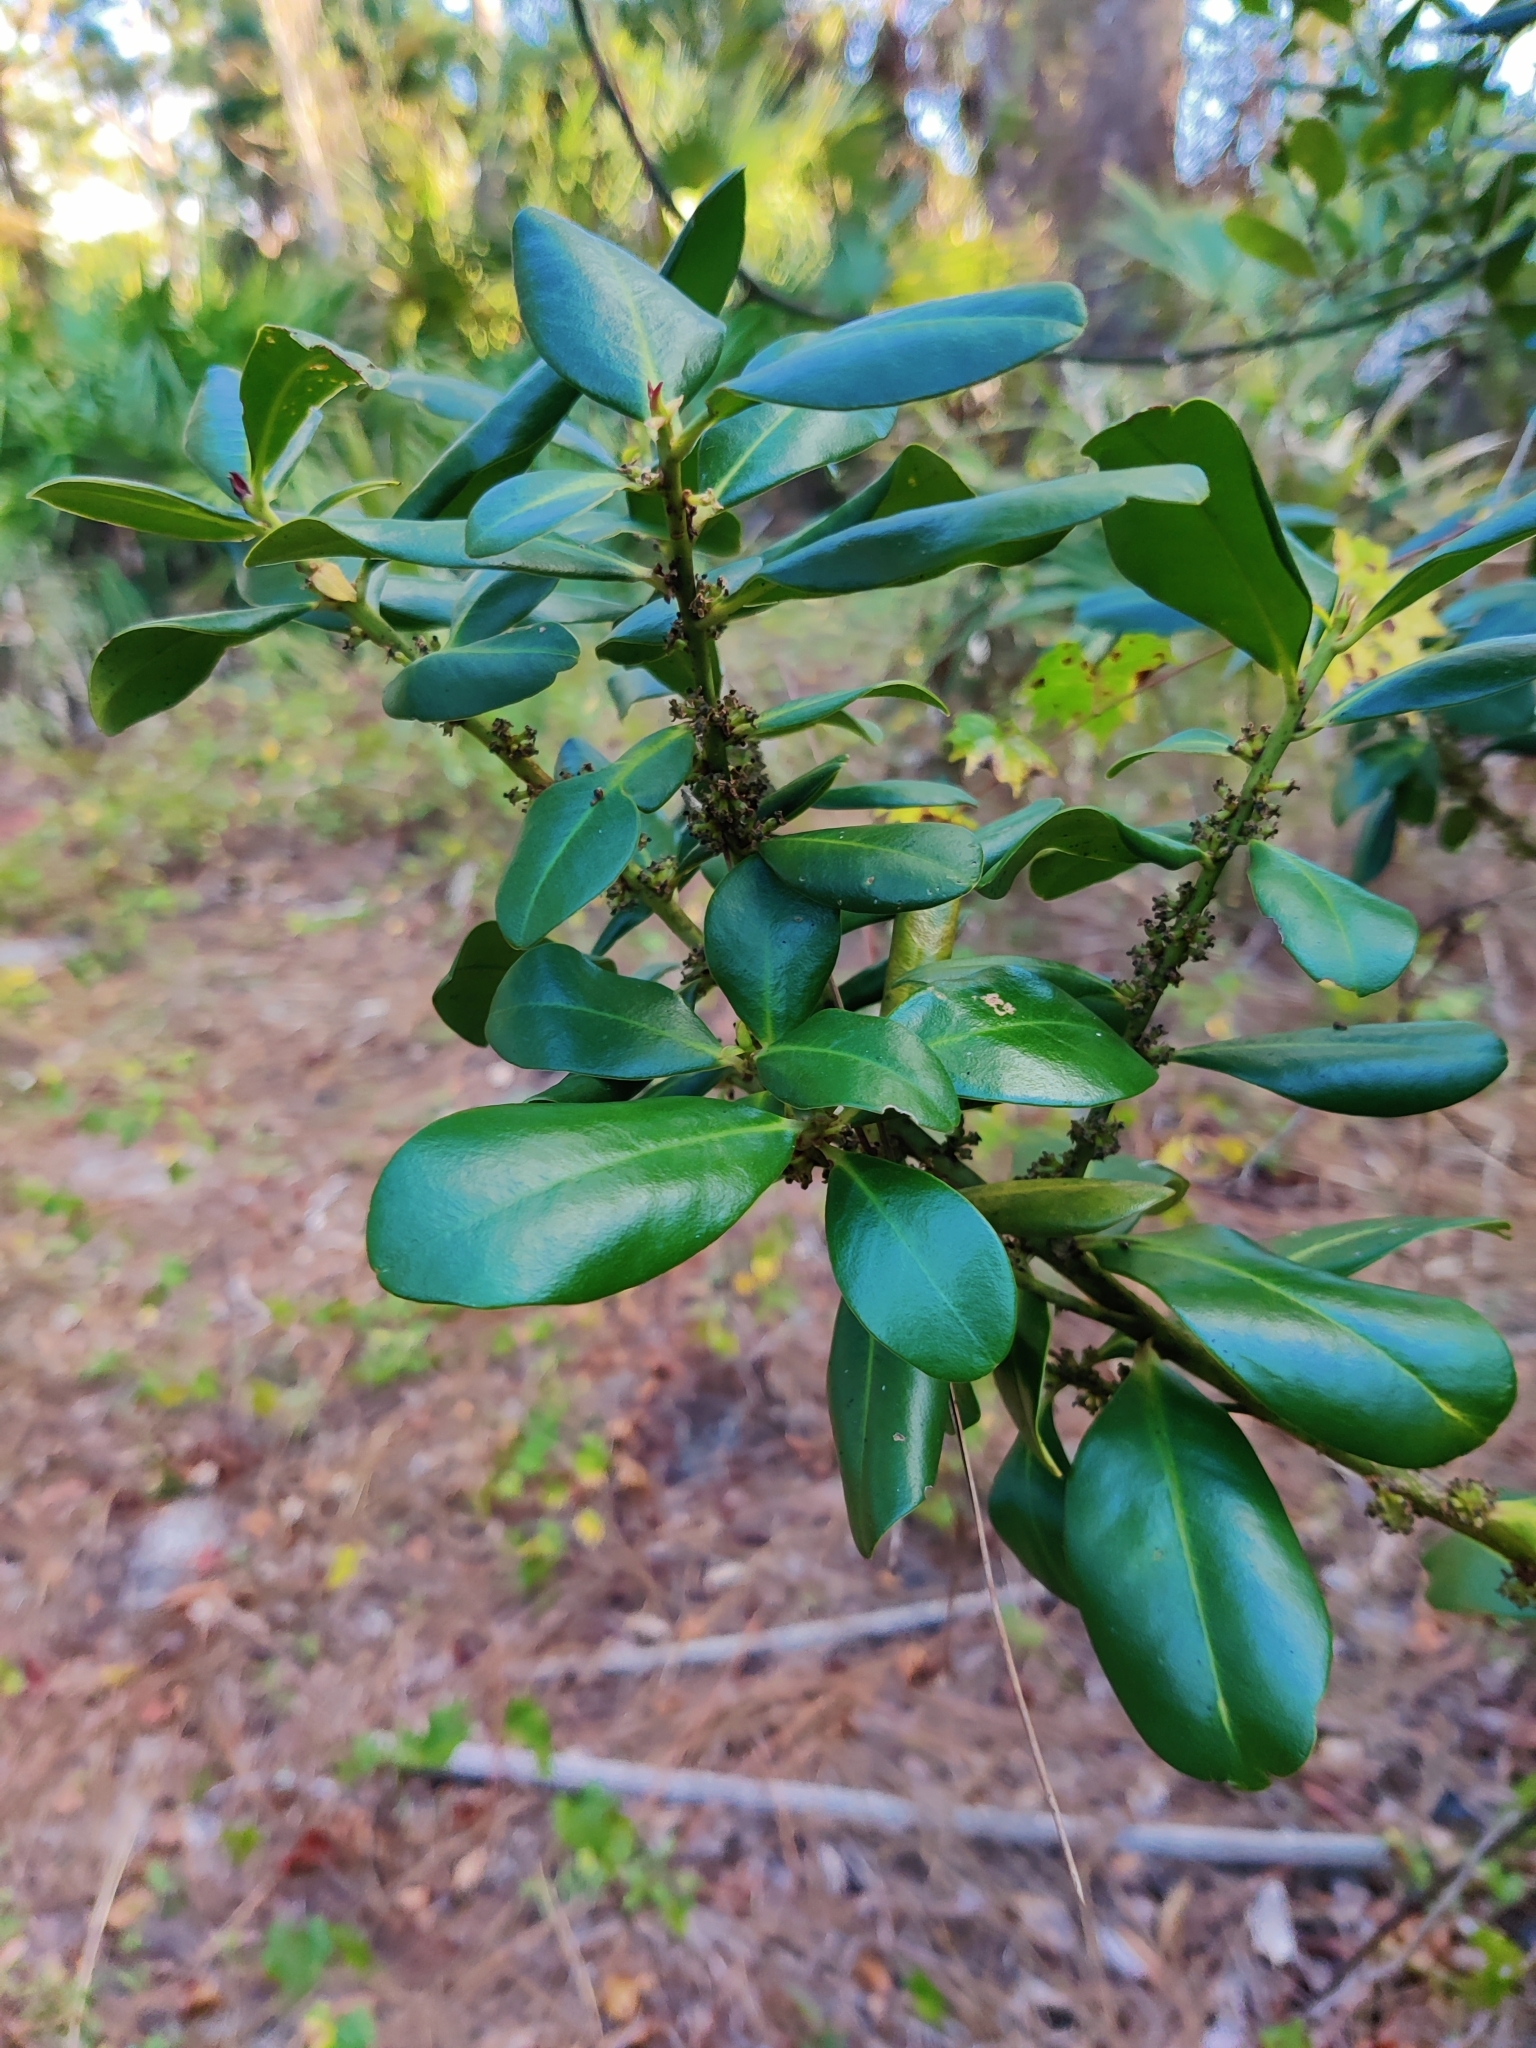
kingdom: Plantae
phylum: Tracheophyta
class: Magnoliopsida
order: Ericales
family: Primulaceae
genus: Myrsine
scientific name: Myrsine floridana
